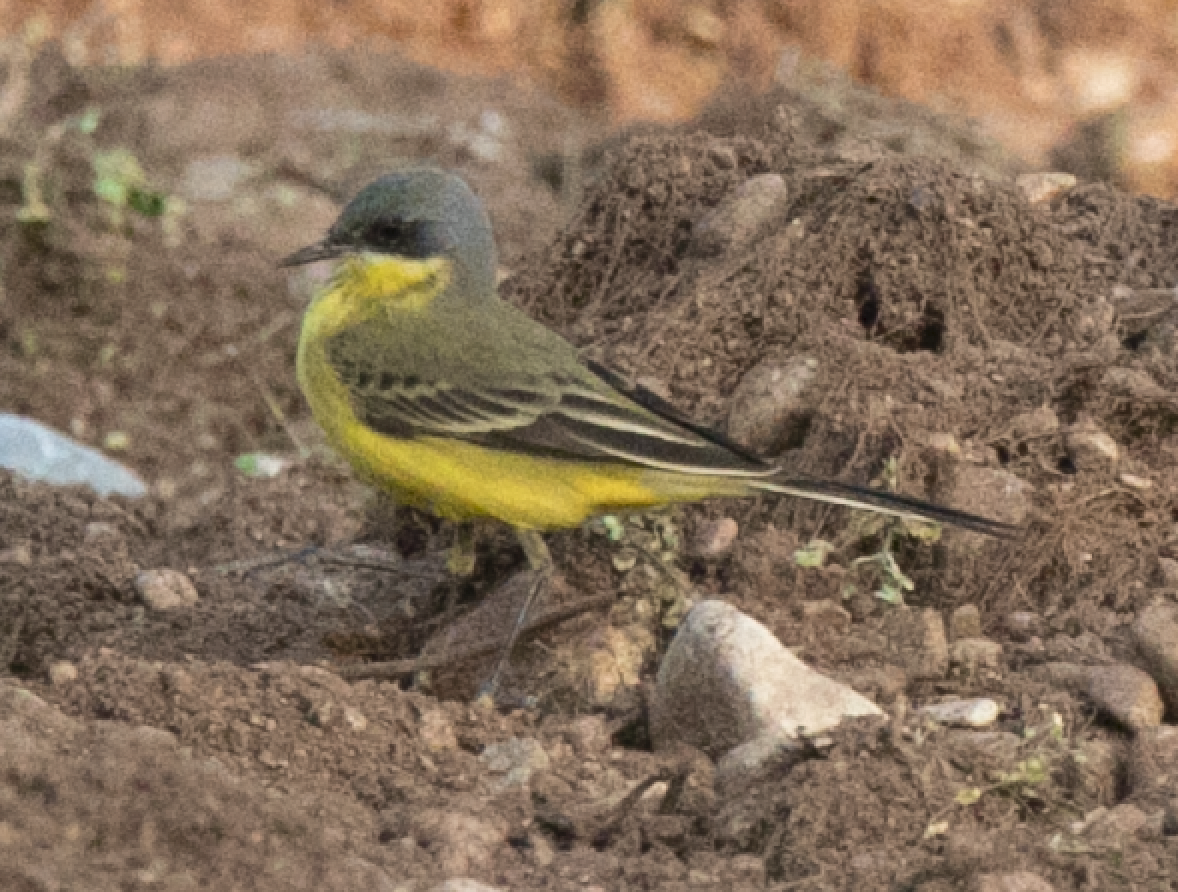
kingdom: Animalia
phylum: Chordata
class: Aves
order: Passeriformes
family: Motacillidae
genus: Motacilla
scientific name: Motacilla flava
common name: Western yellow wagtail
